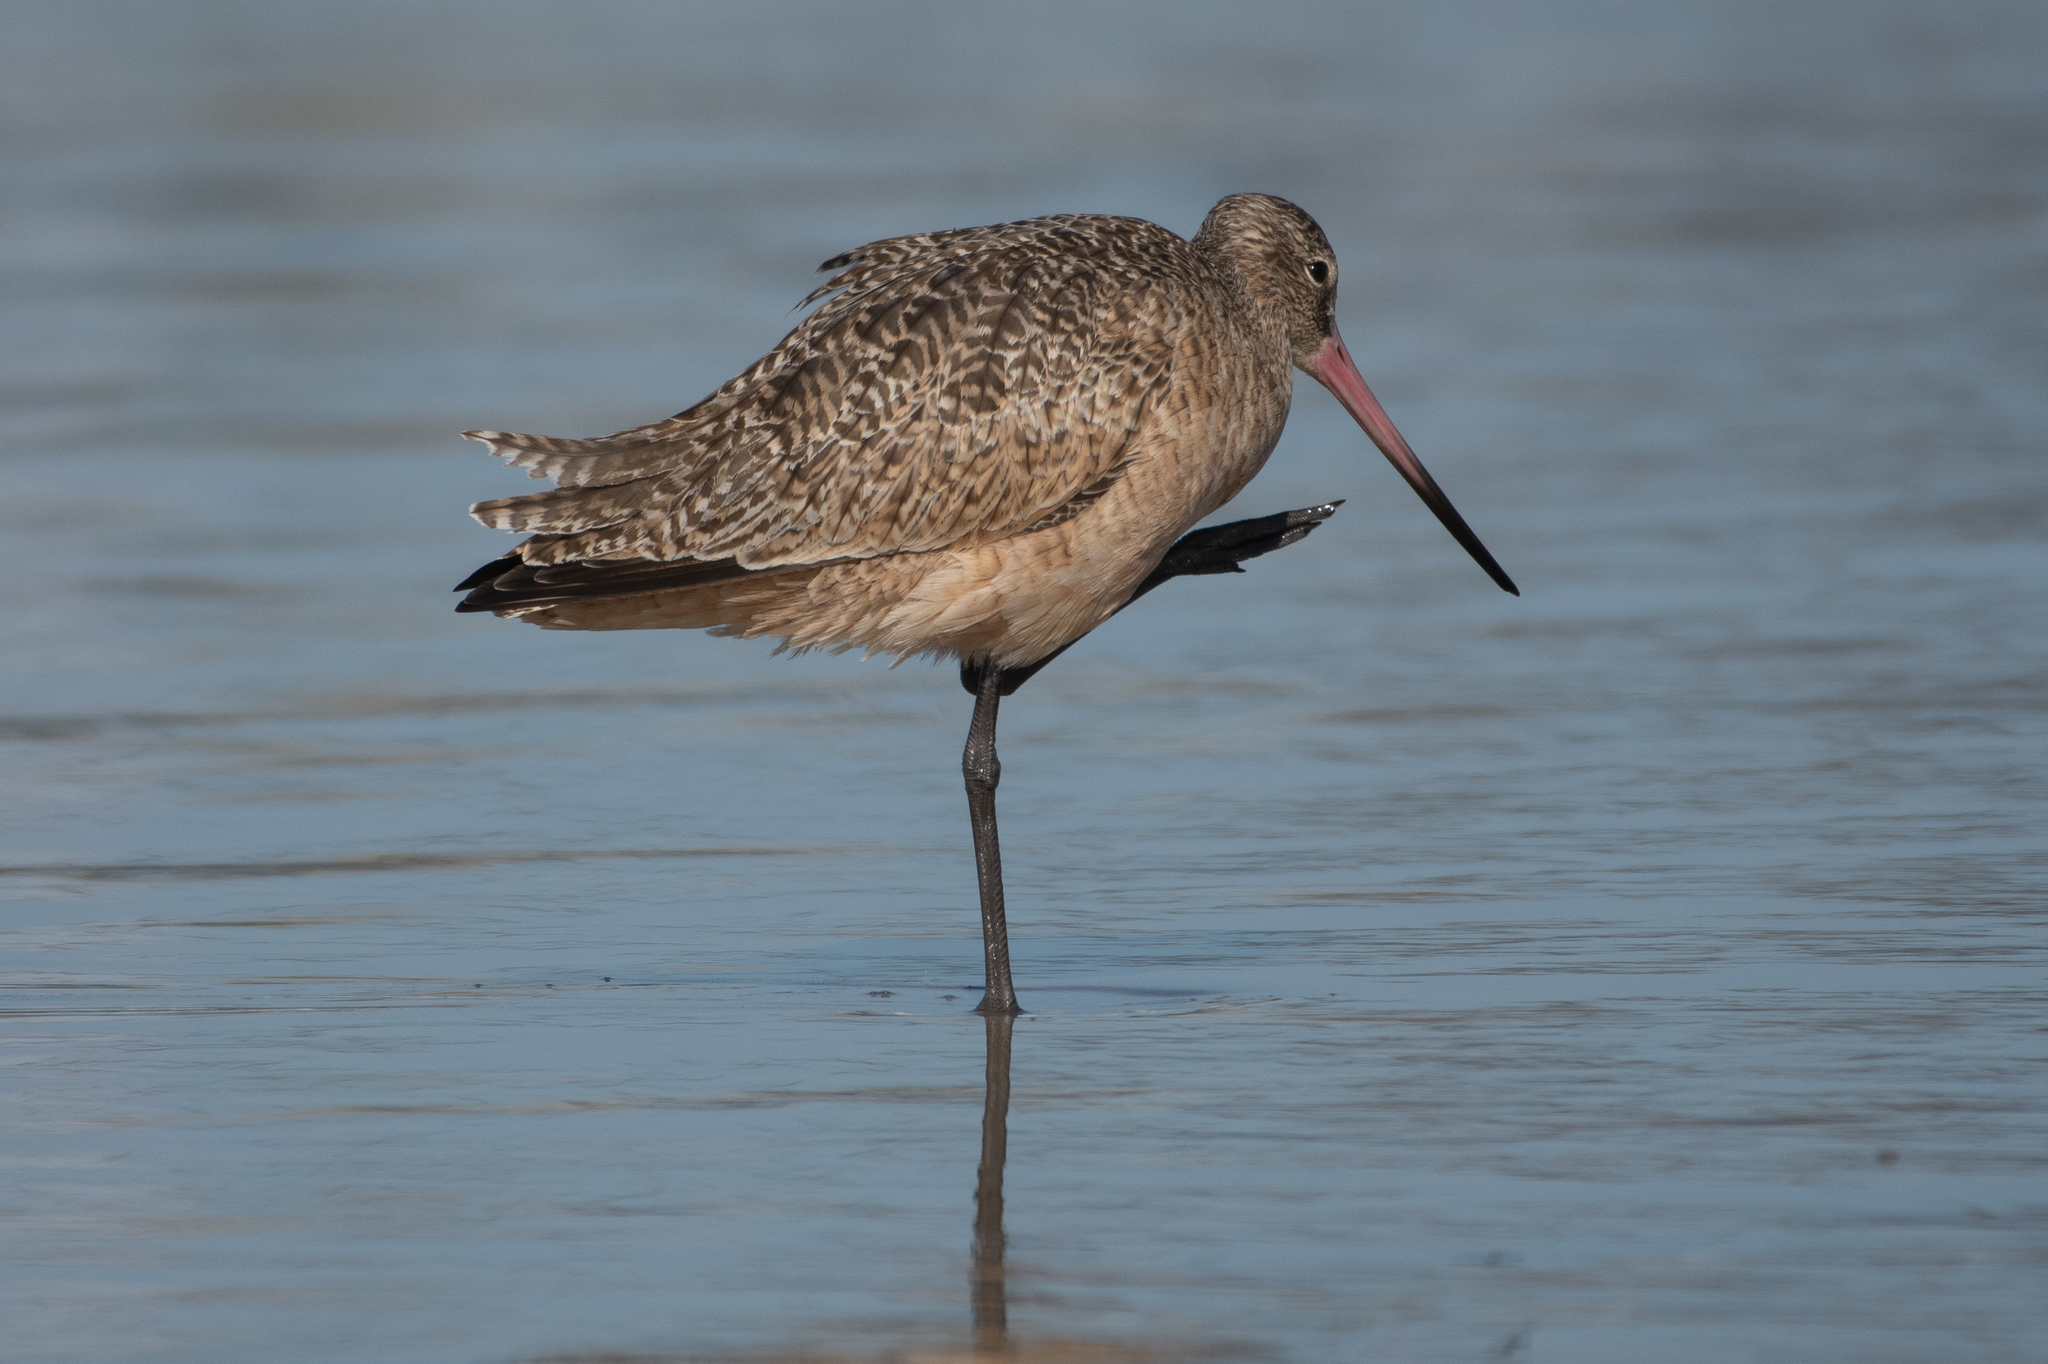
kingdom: Animalia
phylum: Chordata
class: Aves
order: Charadriiformes
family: Scolopacidae
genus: Limosa
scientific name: Limosa fedoa
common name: Marbled godwit
